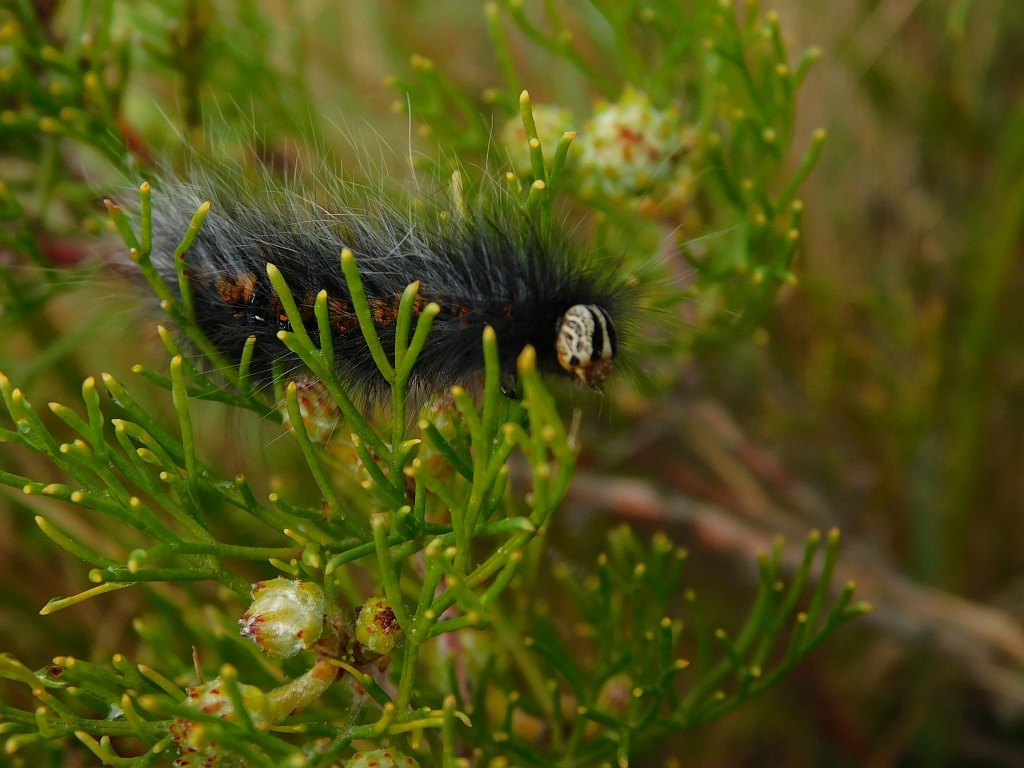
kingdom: Animalia
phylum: Arthropoda
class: Insecta
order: Lepidoptera
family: Lasiocampidae
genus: Mesocelis
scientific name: Mesocelis monticola
